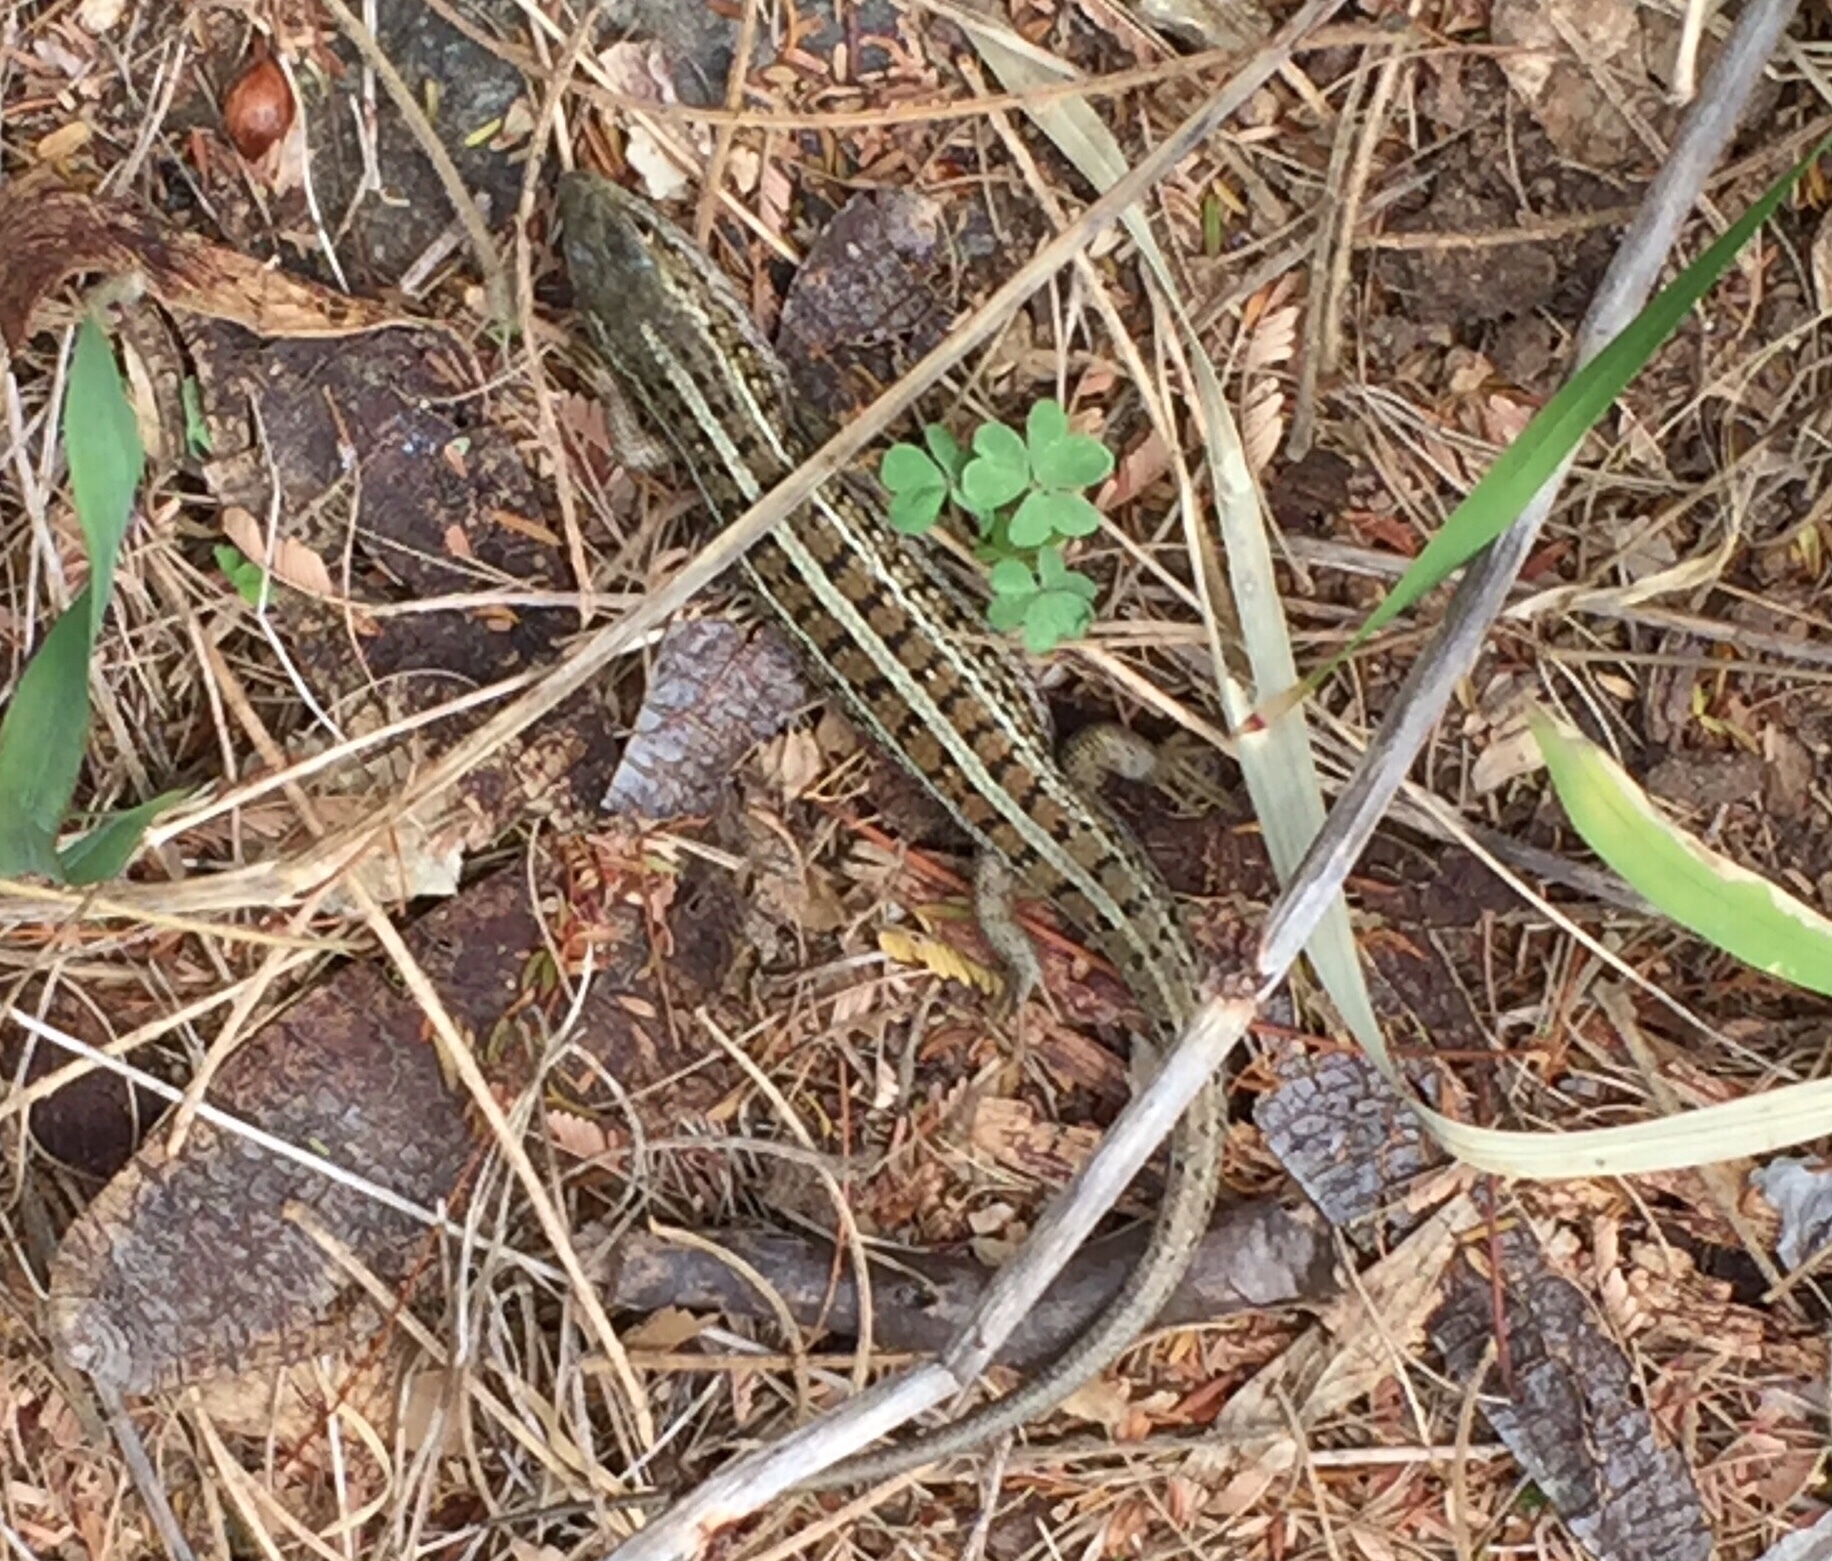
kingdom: Animalia
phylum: Chordata
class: Squamata
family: Scincidae
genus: Trachylepis
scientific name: Trachylepis capensis
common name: Cape skink
